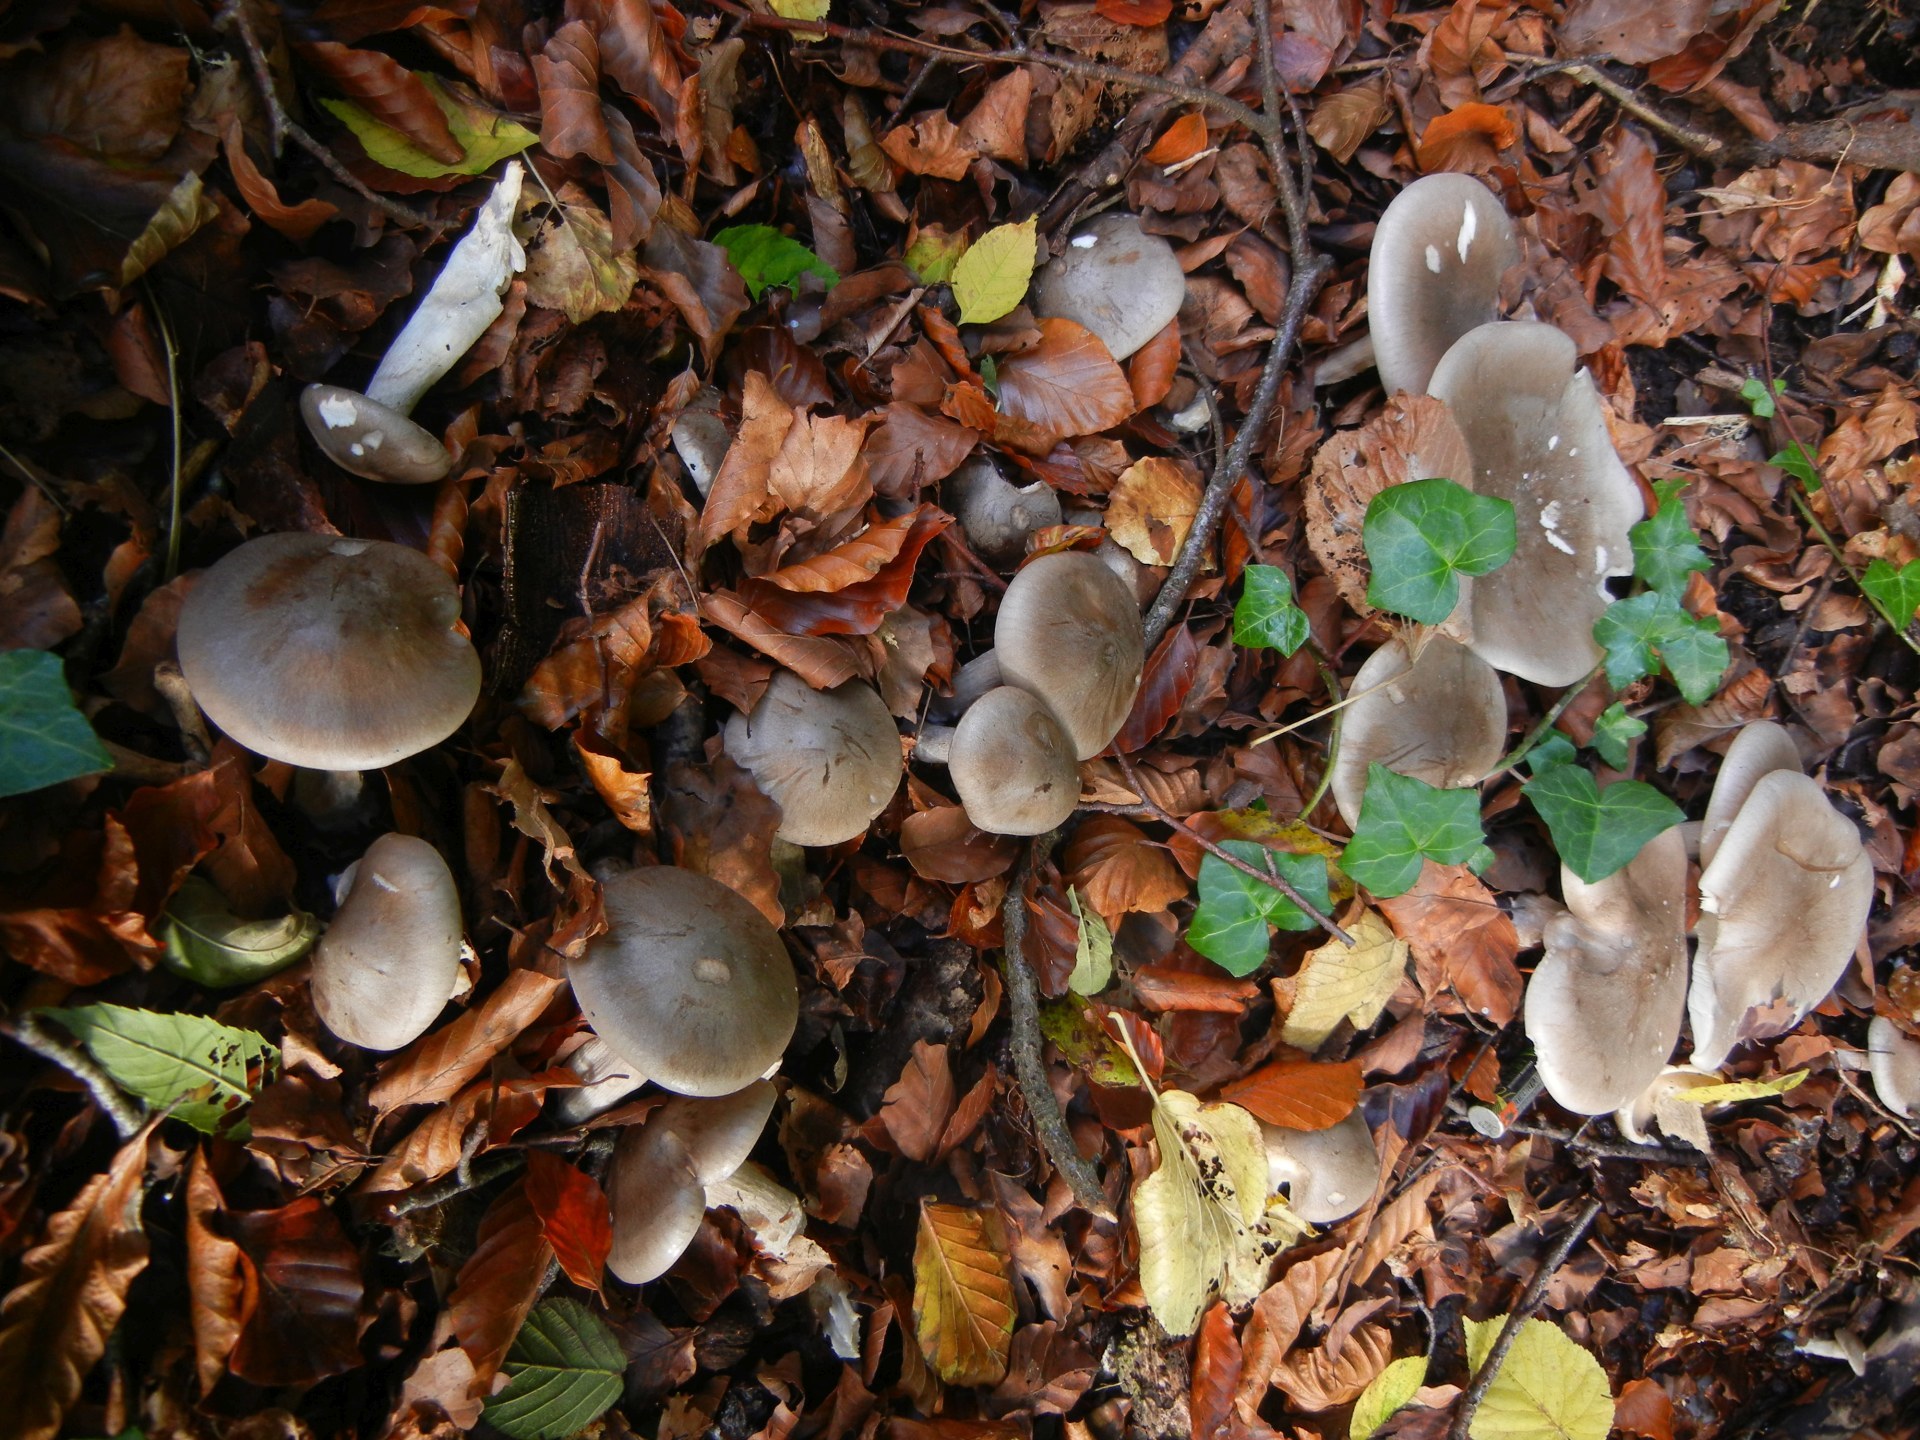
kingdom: Fungi
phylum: Basidiomycota
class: Agaricomycetes
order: Agaricales
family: Tricholomataceae
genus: Clitocybe
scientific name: Clitocybe nebularis
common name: Clouded agaric
